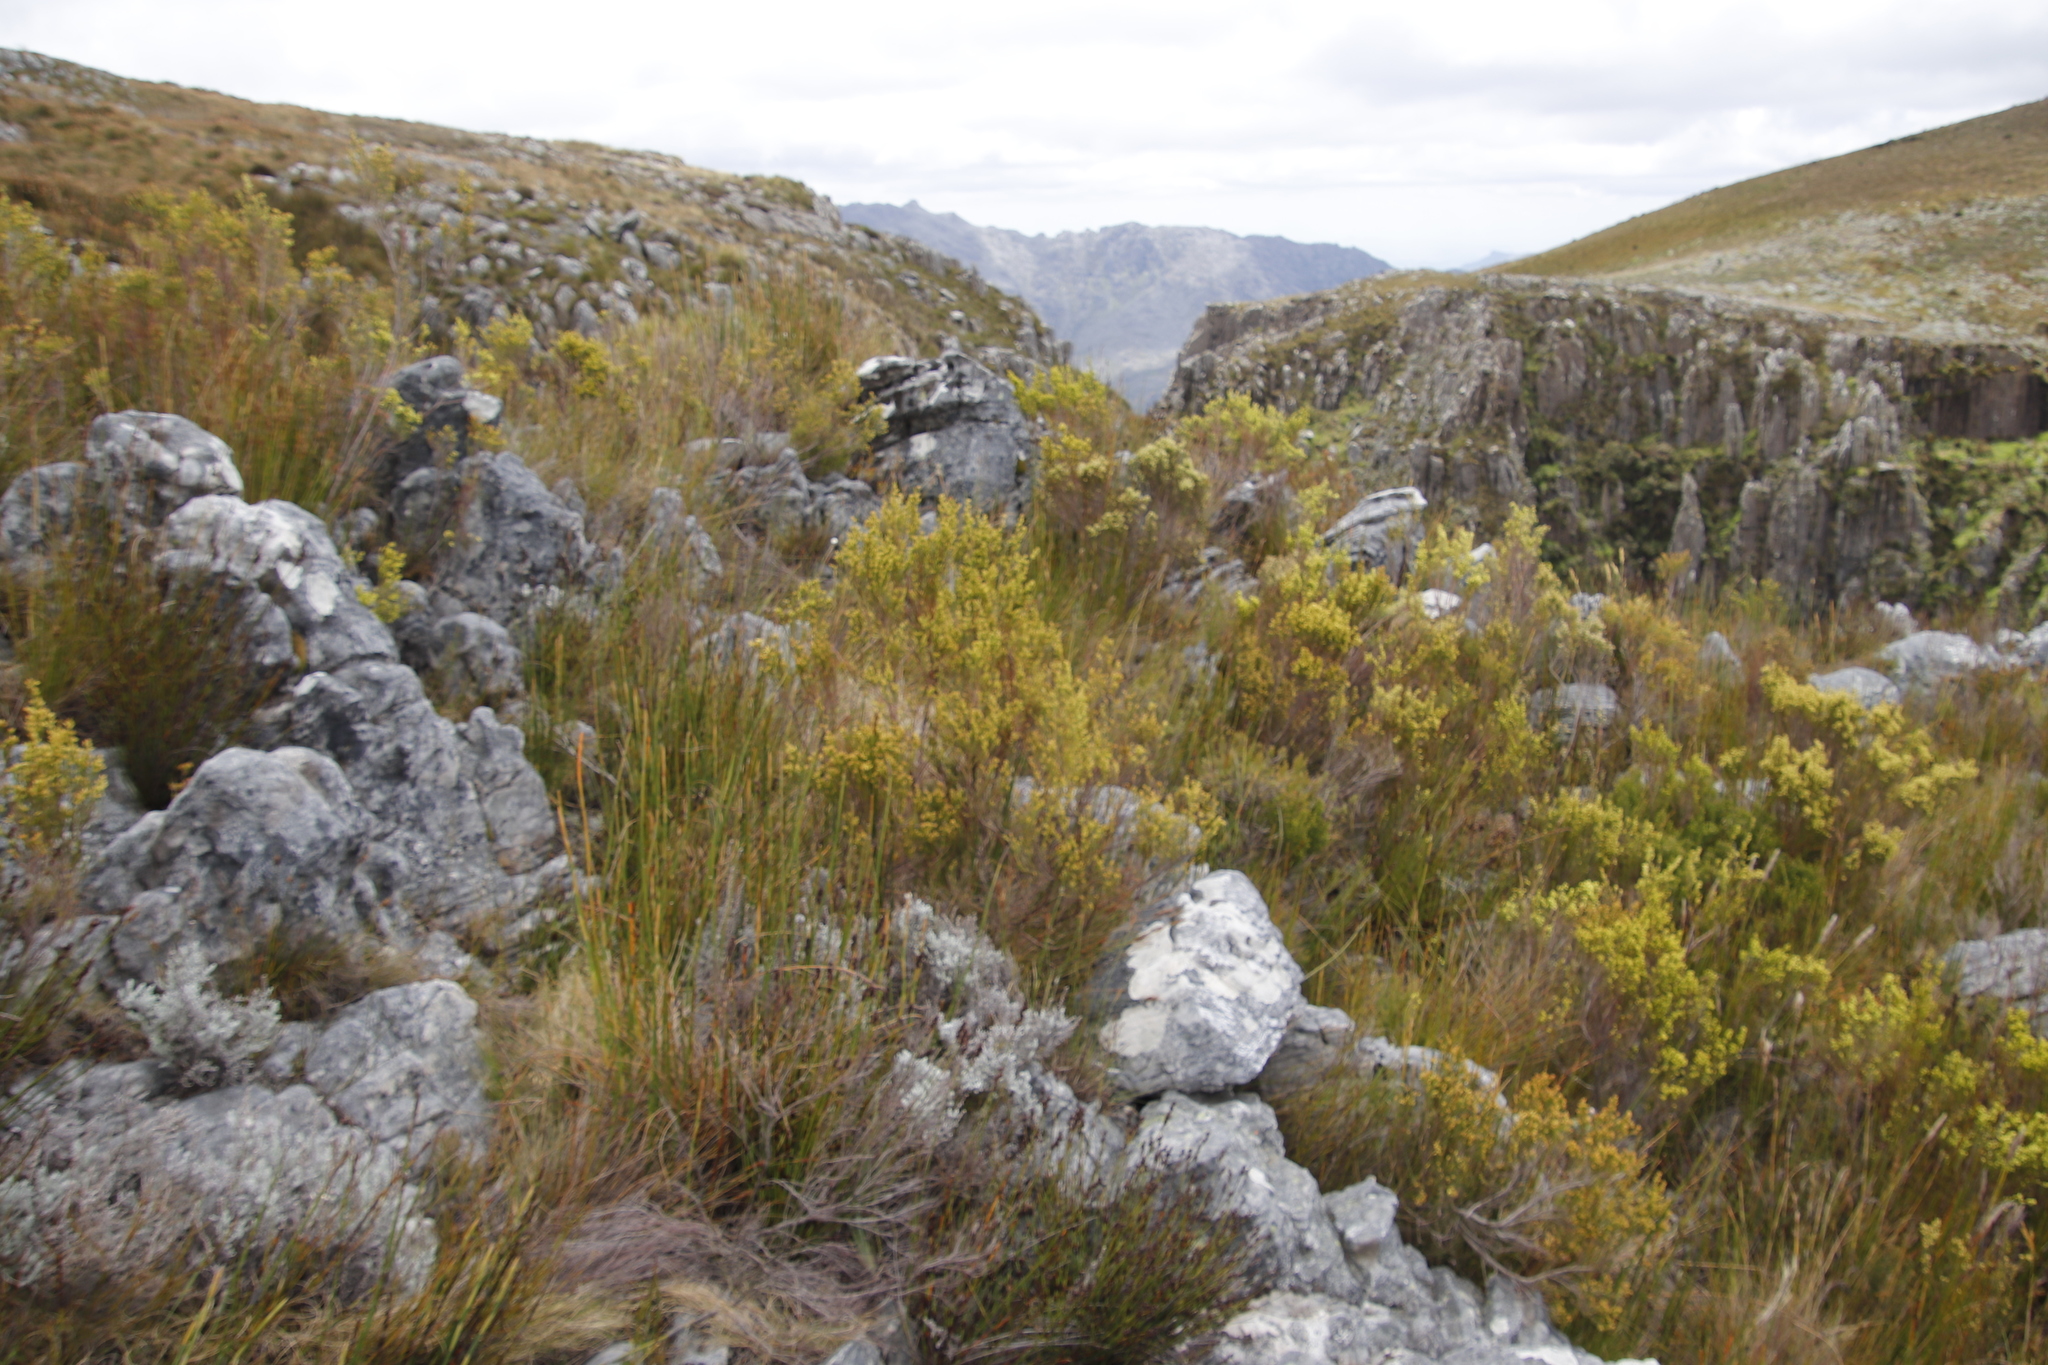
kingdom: Plantae
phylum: Tracheophyta
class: Magnoliopsida
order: Ericales
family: Ericaceae
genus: Erica
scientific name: Erica lutea
